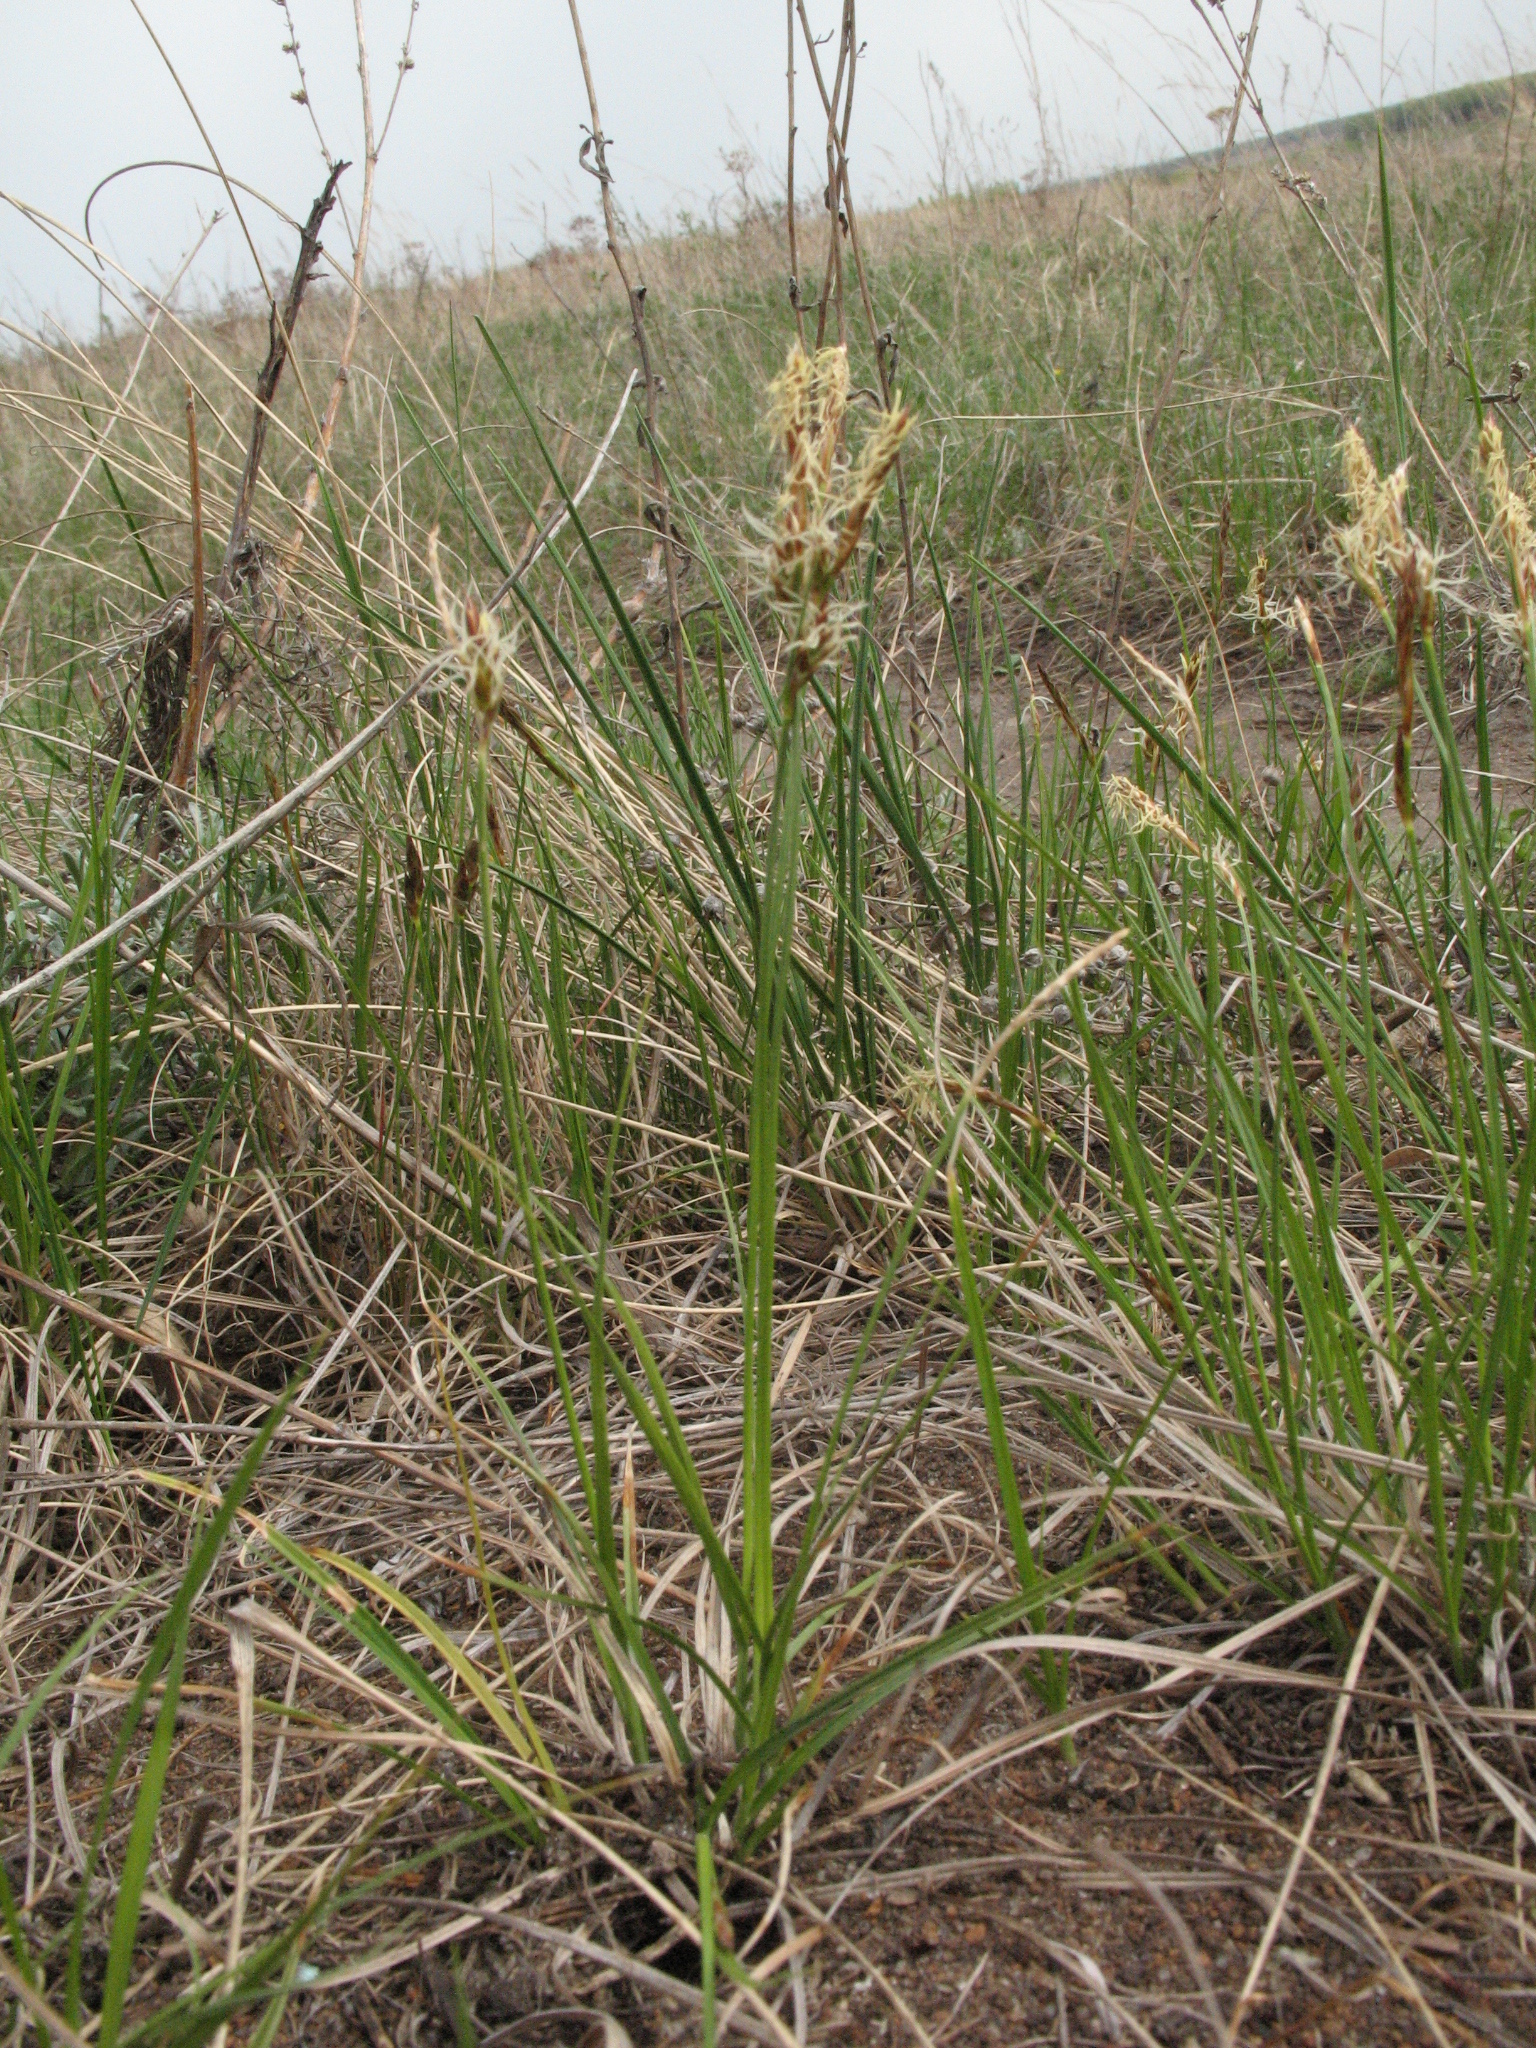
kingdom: Plantae
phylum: Tracheophyta
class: Liliopsida
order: Poales
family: Cyperaceae
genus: Carex
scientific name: Carex supina
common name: Lying-back sedge
